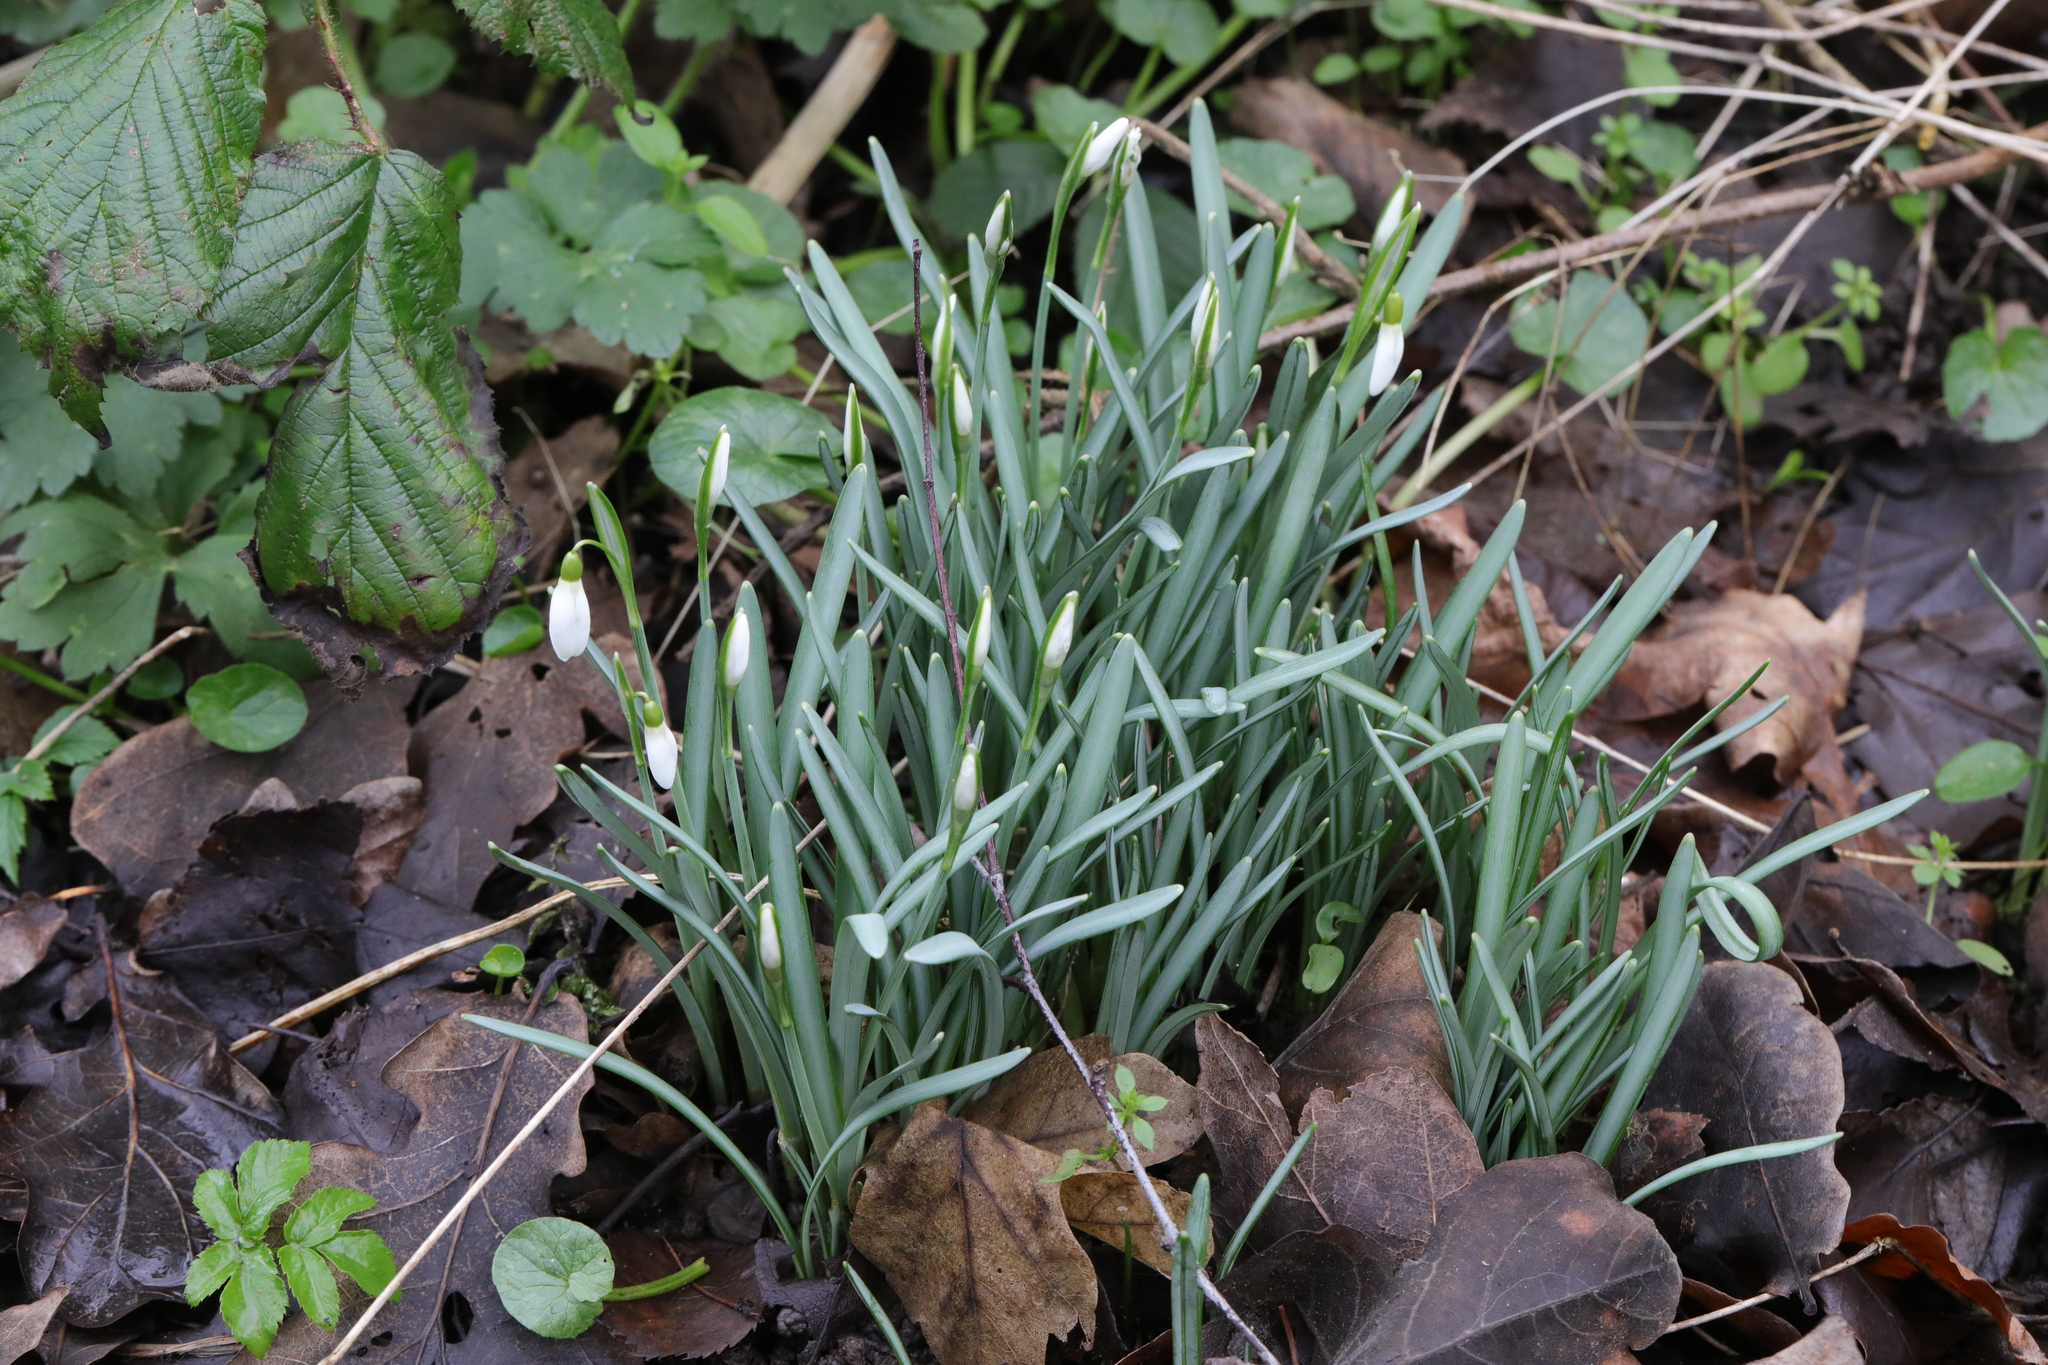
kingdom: Plantae
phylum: Tracheophyta
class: Liliopsida
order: Asparagales
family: Amaryllidaceae
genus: Galanthus
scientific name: Galanthus nivalis
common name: Snowdrop
